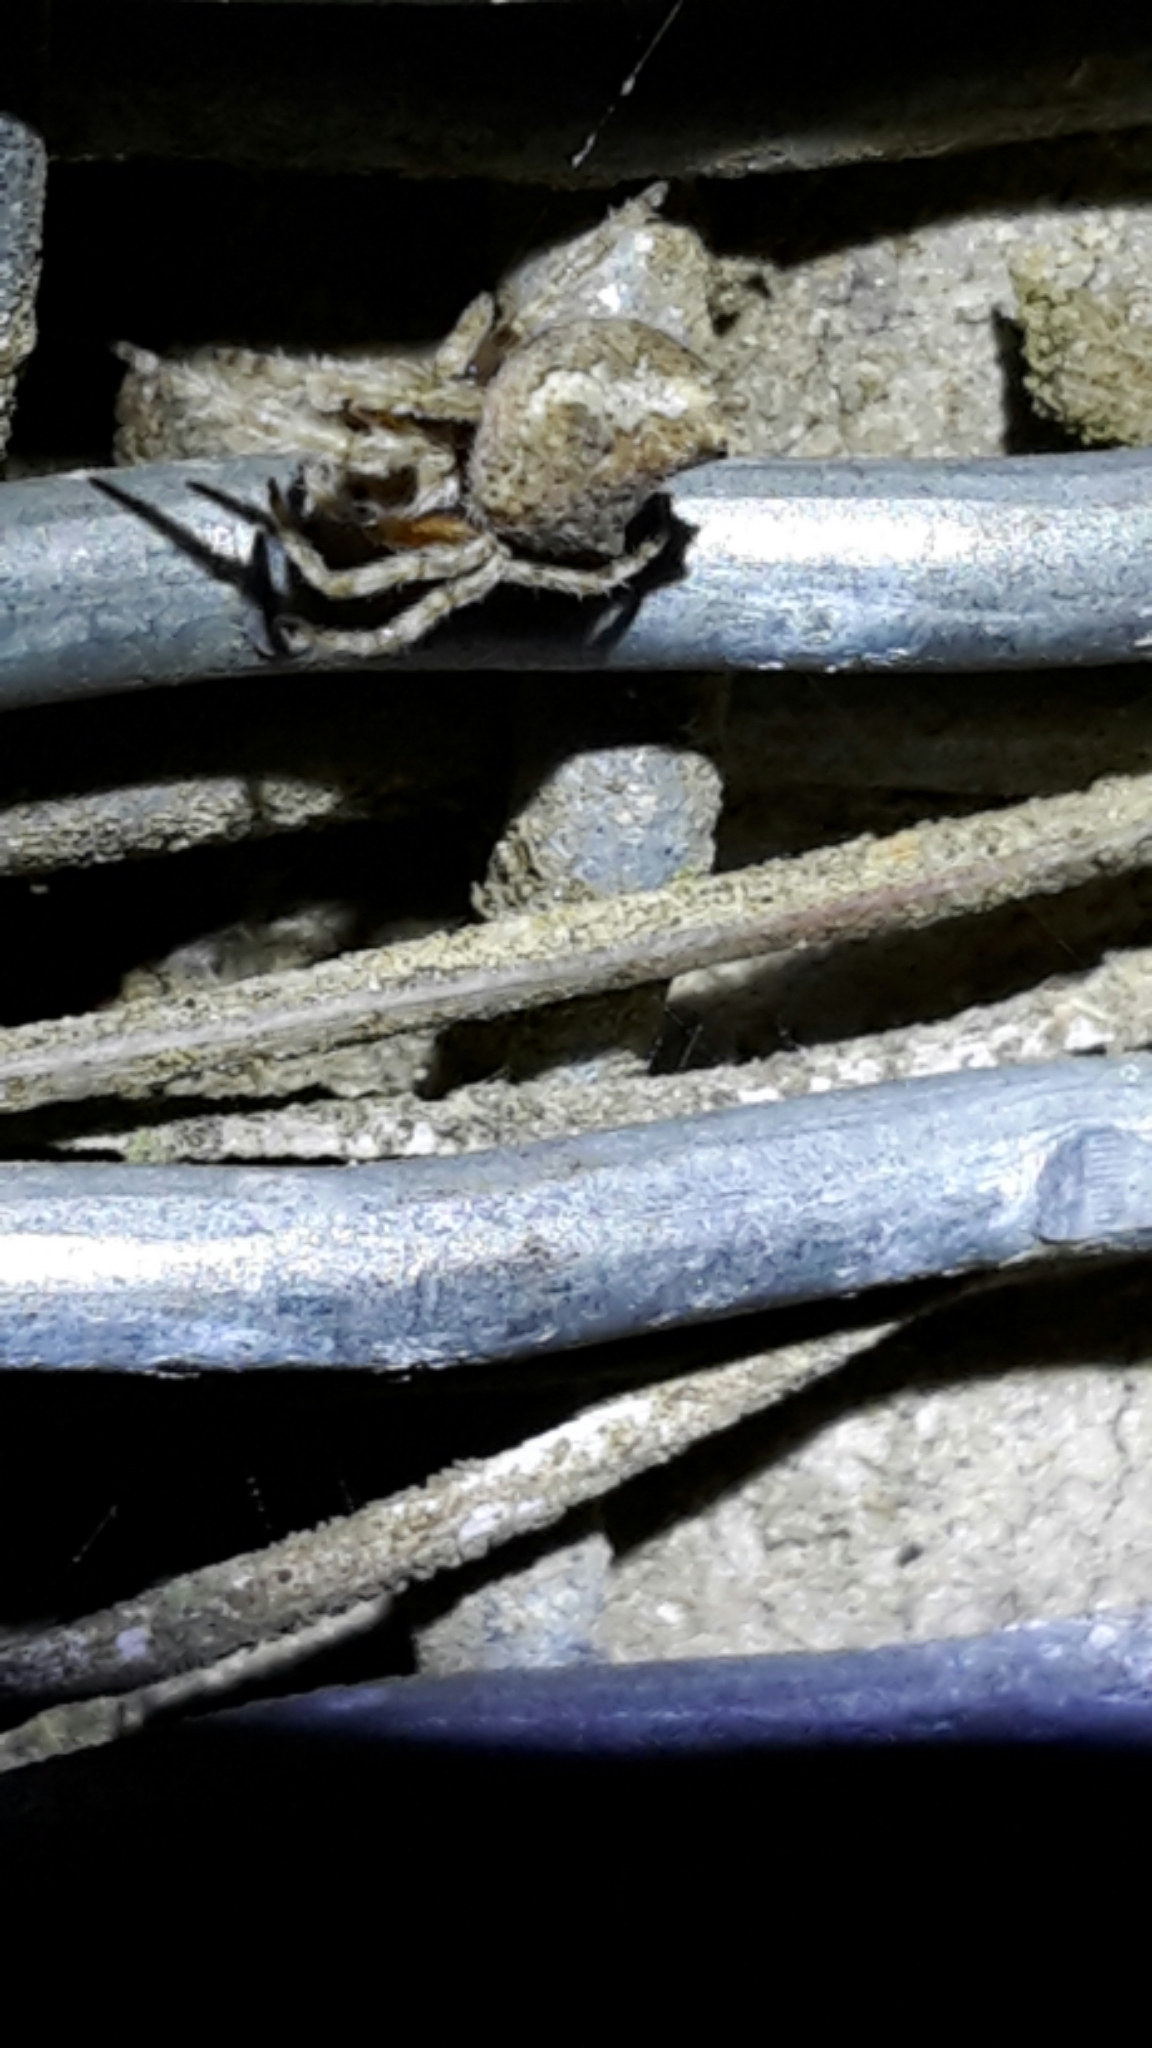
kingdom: Animalia
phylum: Arthropoda
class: Arachnida
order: Araneae
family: Araneidae
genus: Eriophora
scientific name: Eriophora pustulosa
